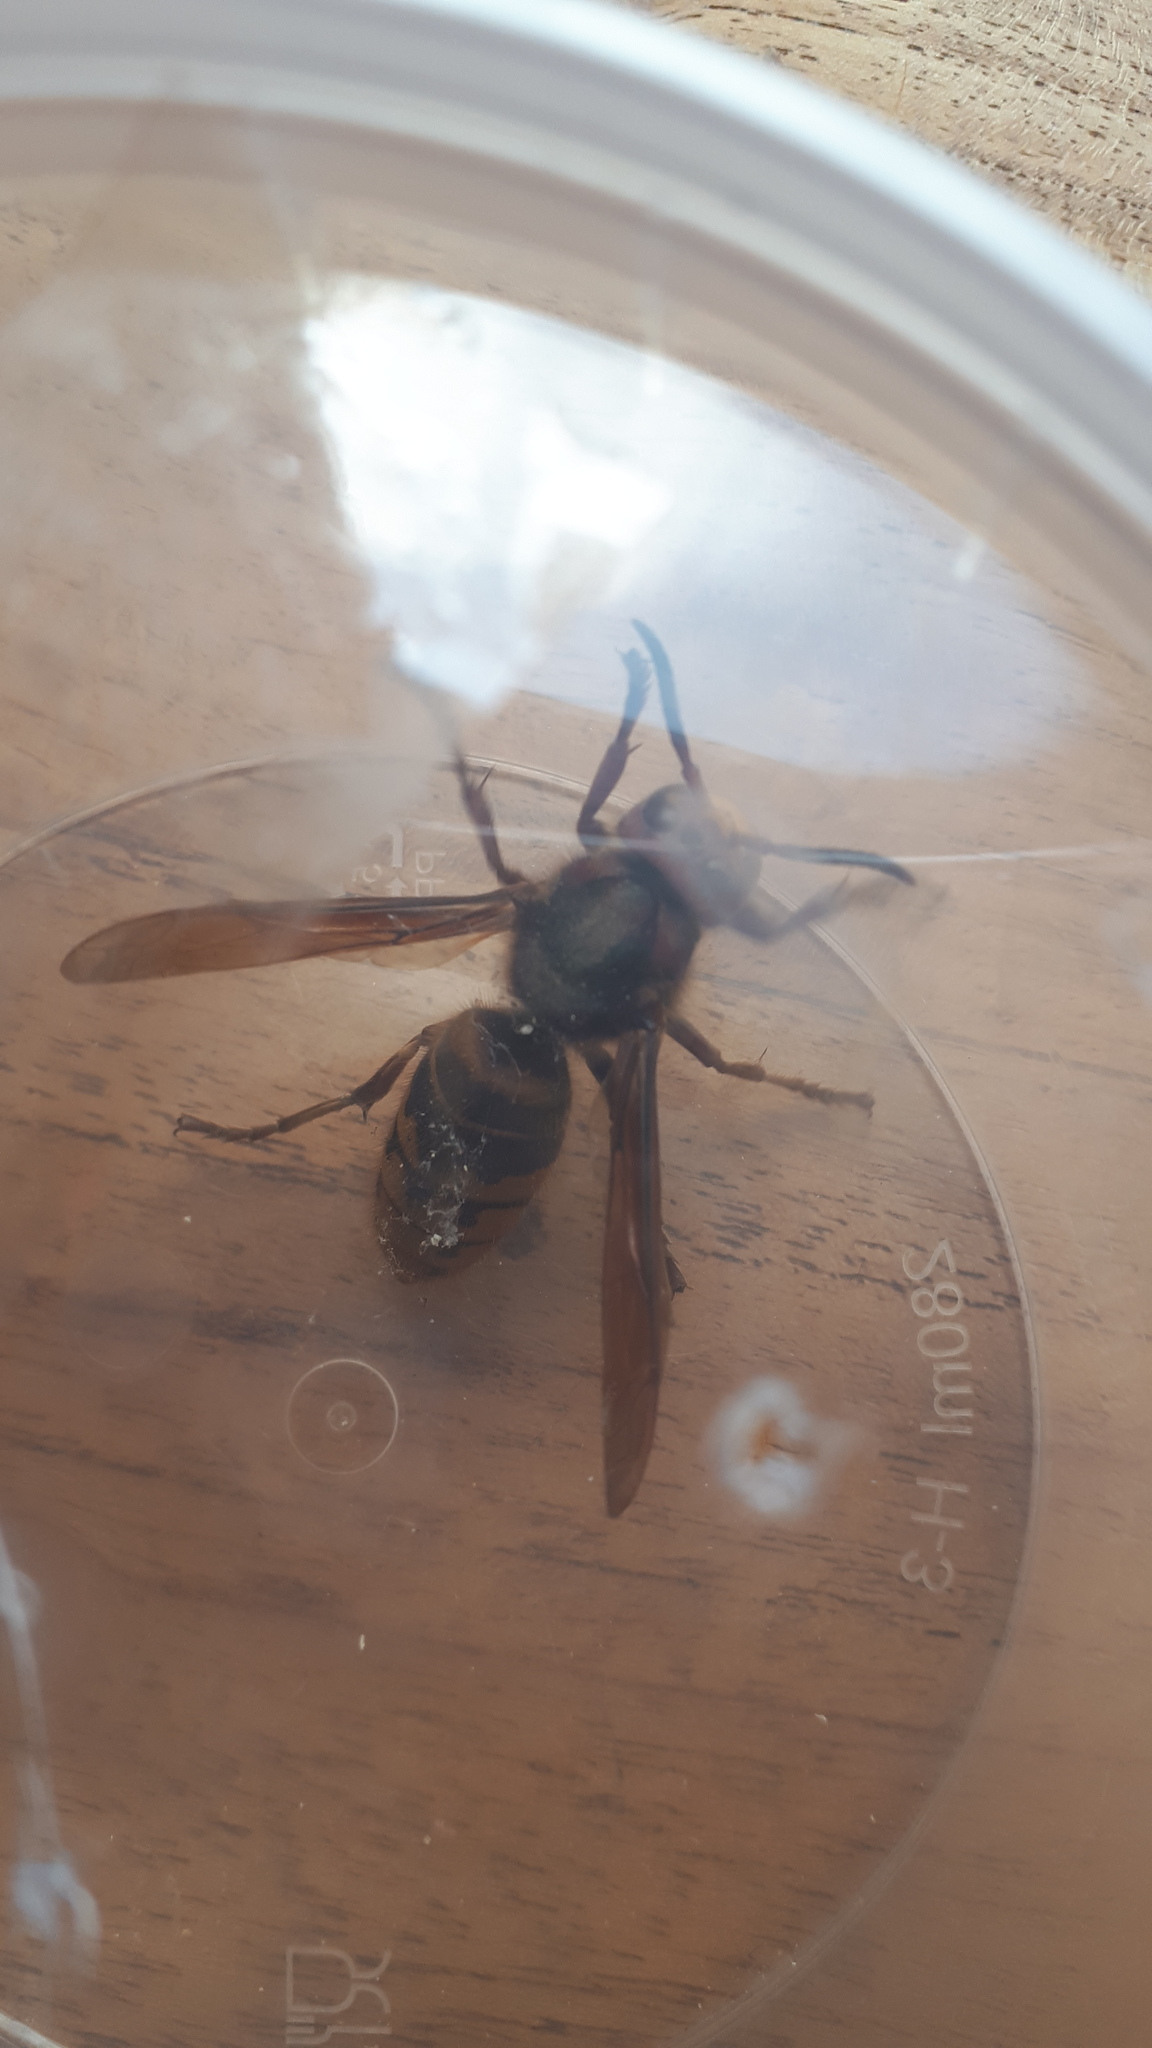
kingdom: Animalia
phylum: Arthropoda
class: Insecta
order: Hymenoptera
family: Vespidae
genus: Vespa
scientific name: Vespa crabro
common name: Hornet
